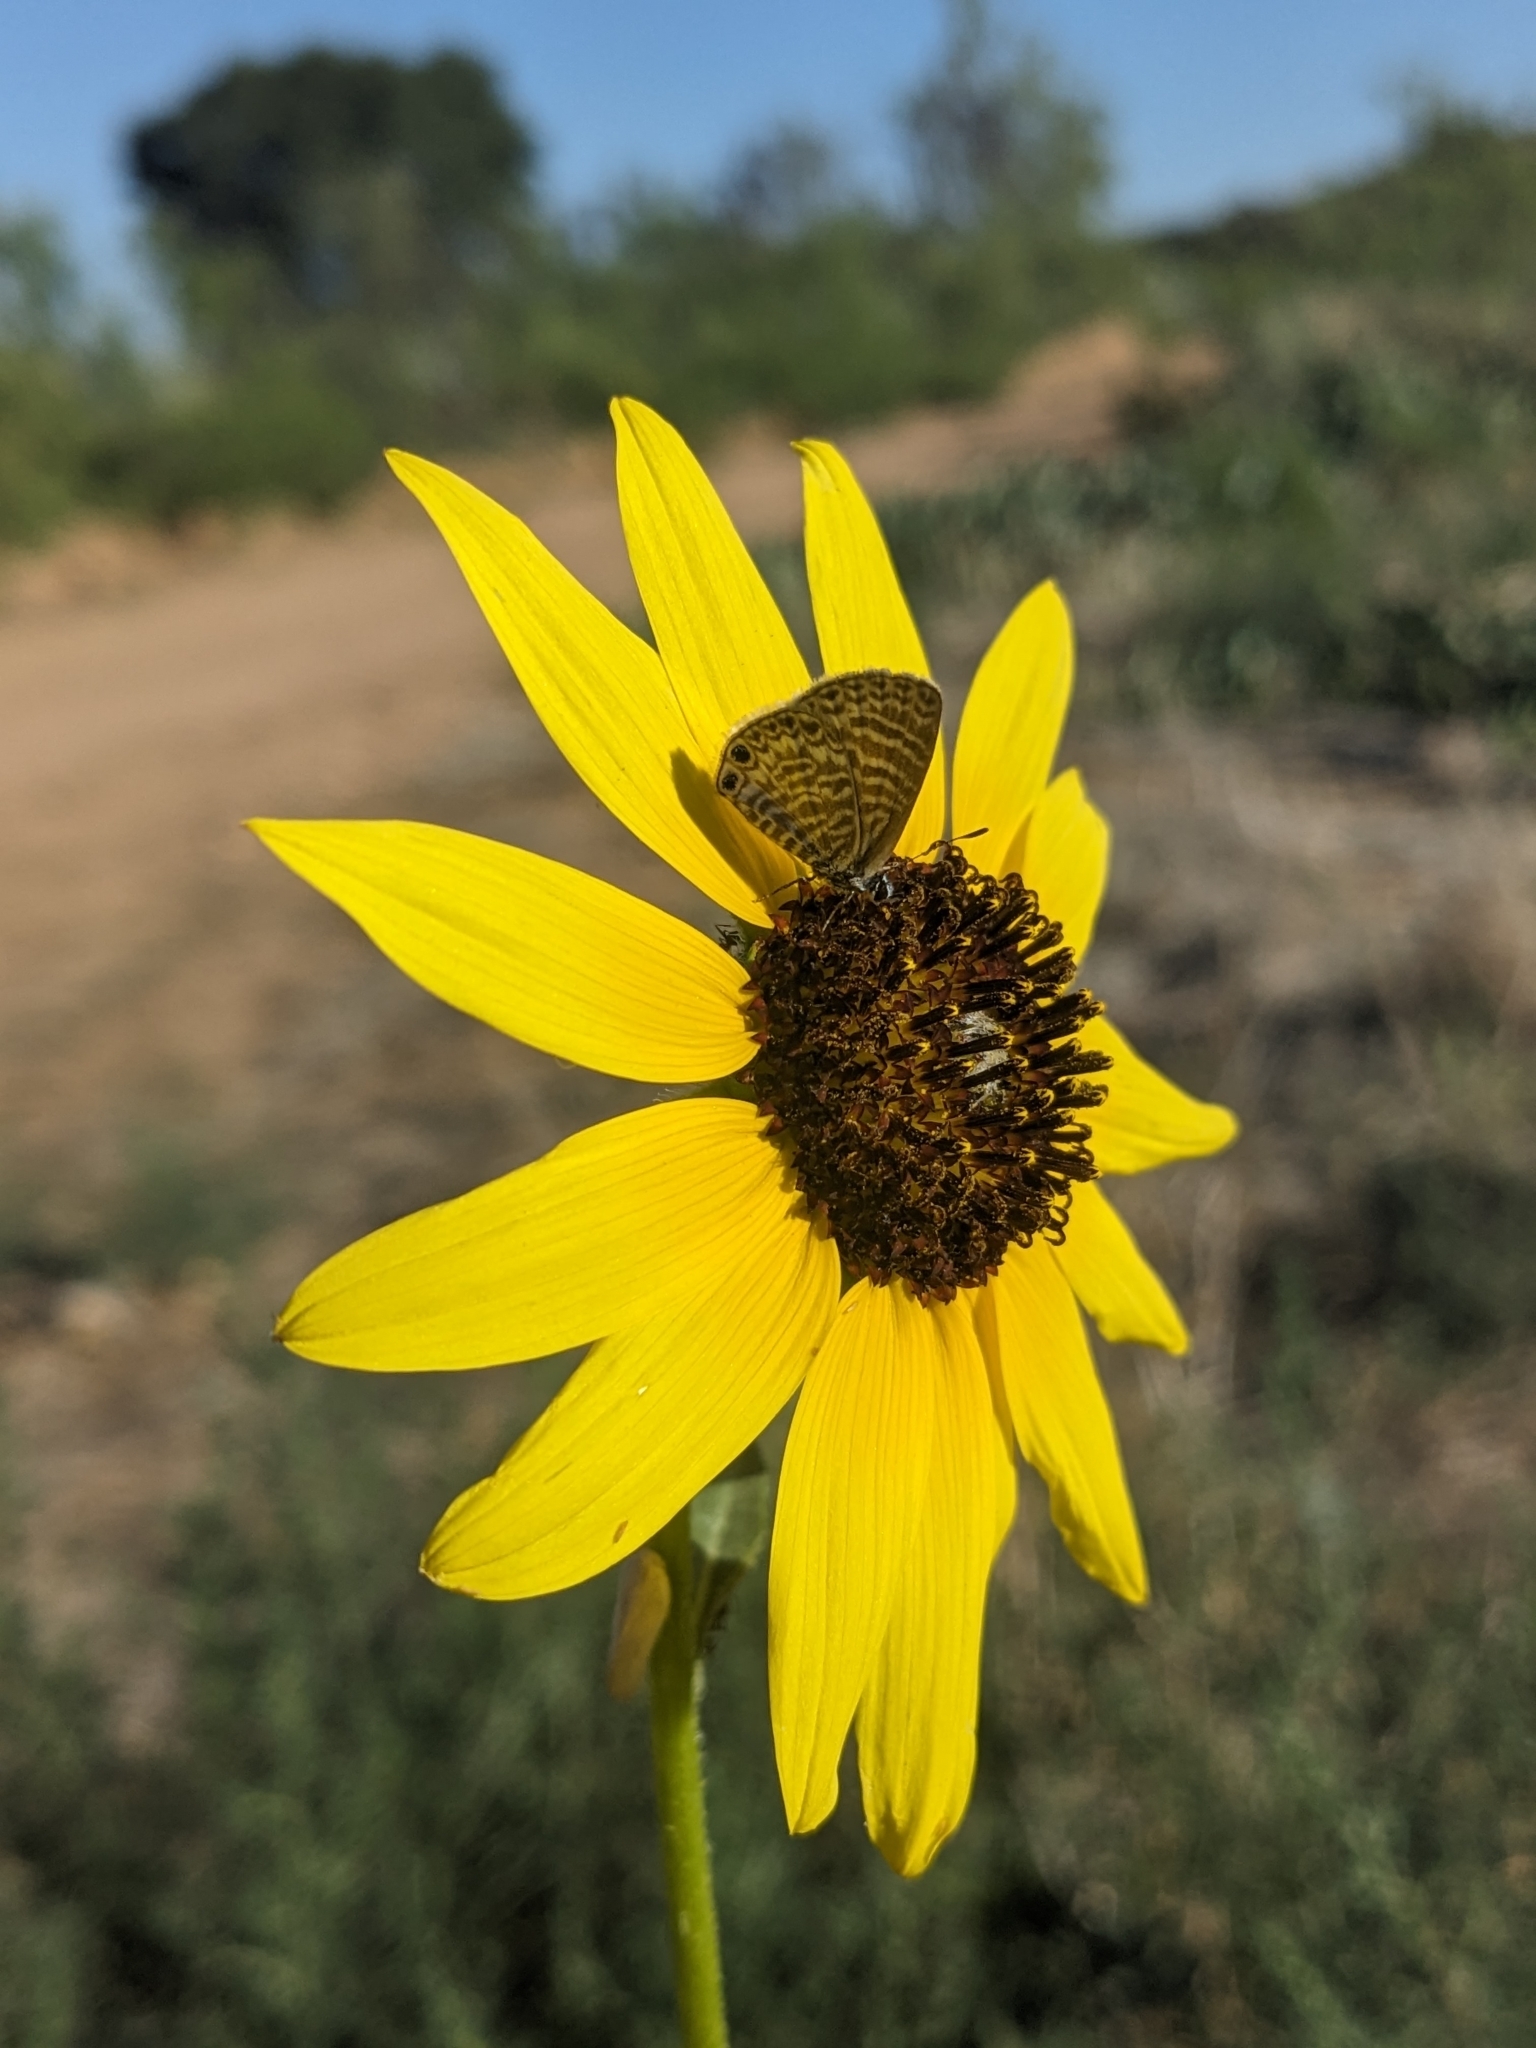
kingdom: Animalia
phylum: Arthropoda
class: Insecta
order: Lepidoptera
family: Lycaenidae
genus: Leptotes
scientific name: Leptotes marina
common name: Marine blue
